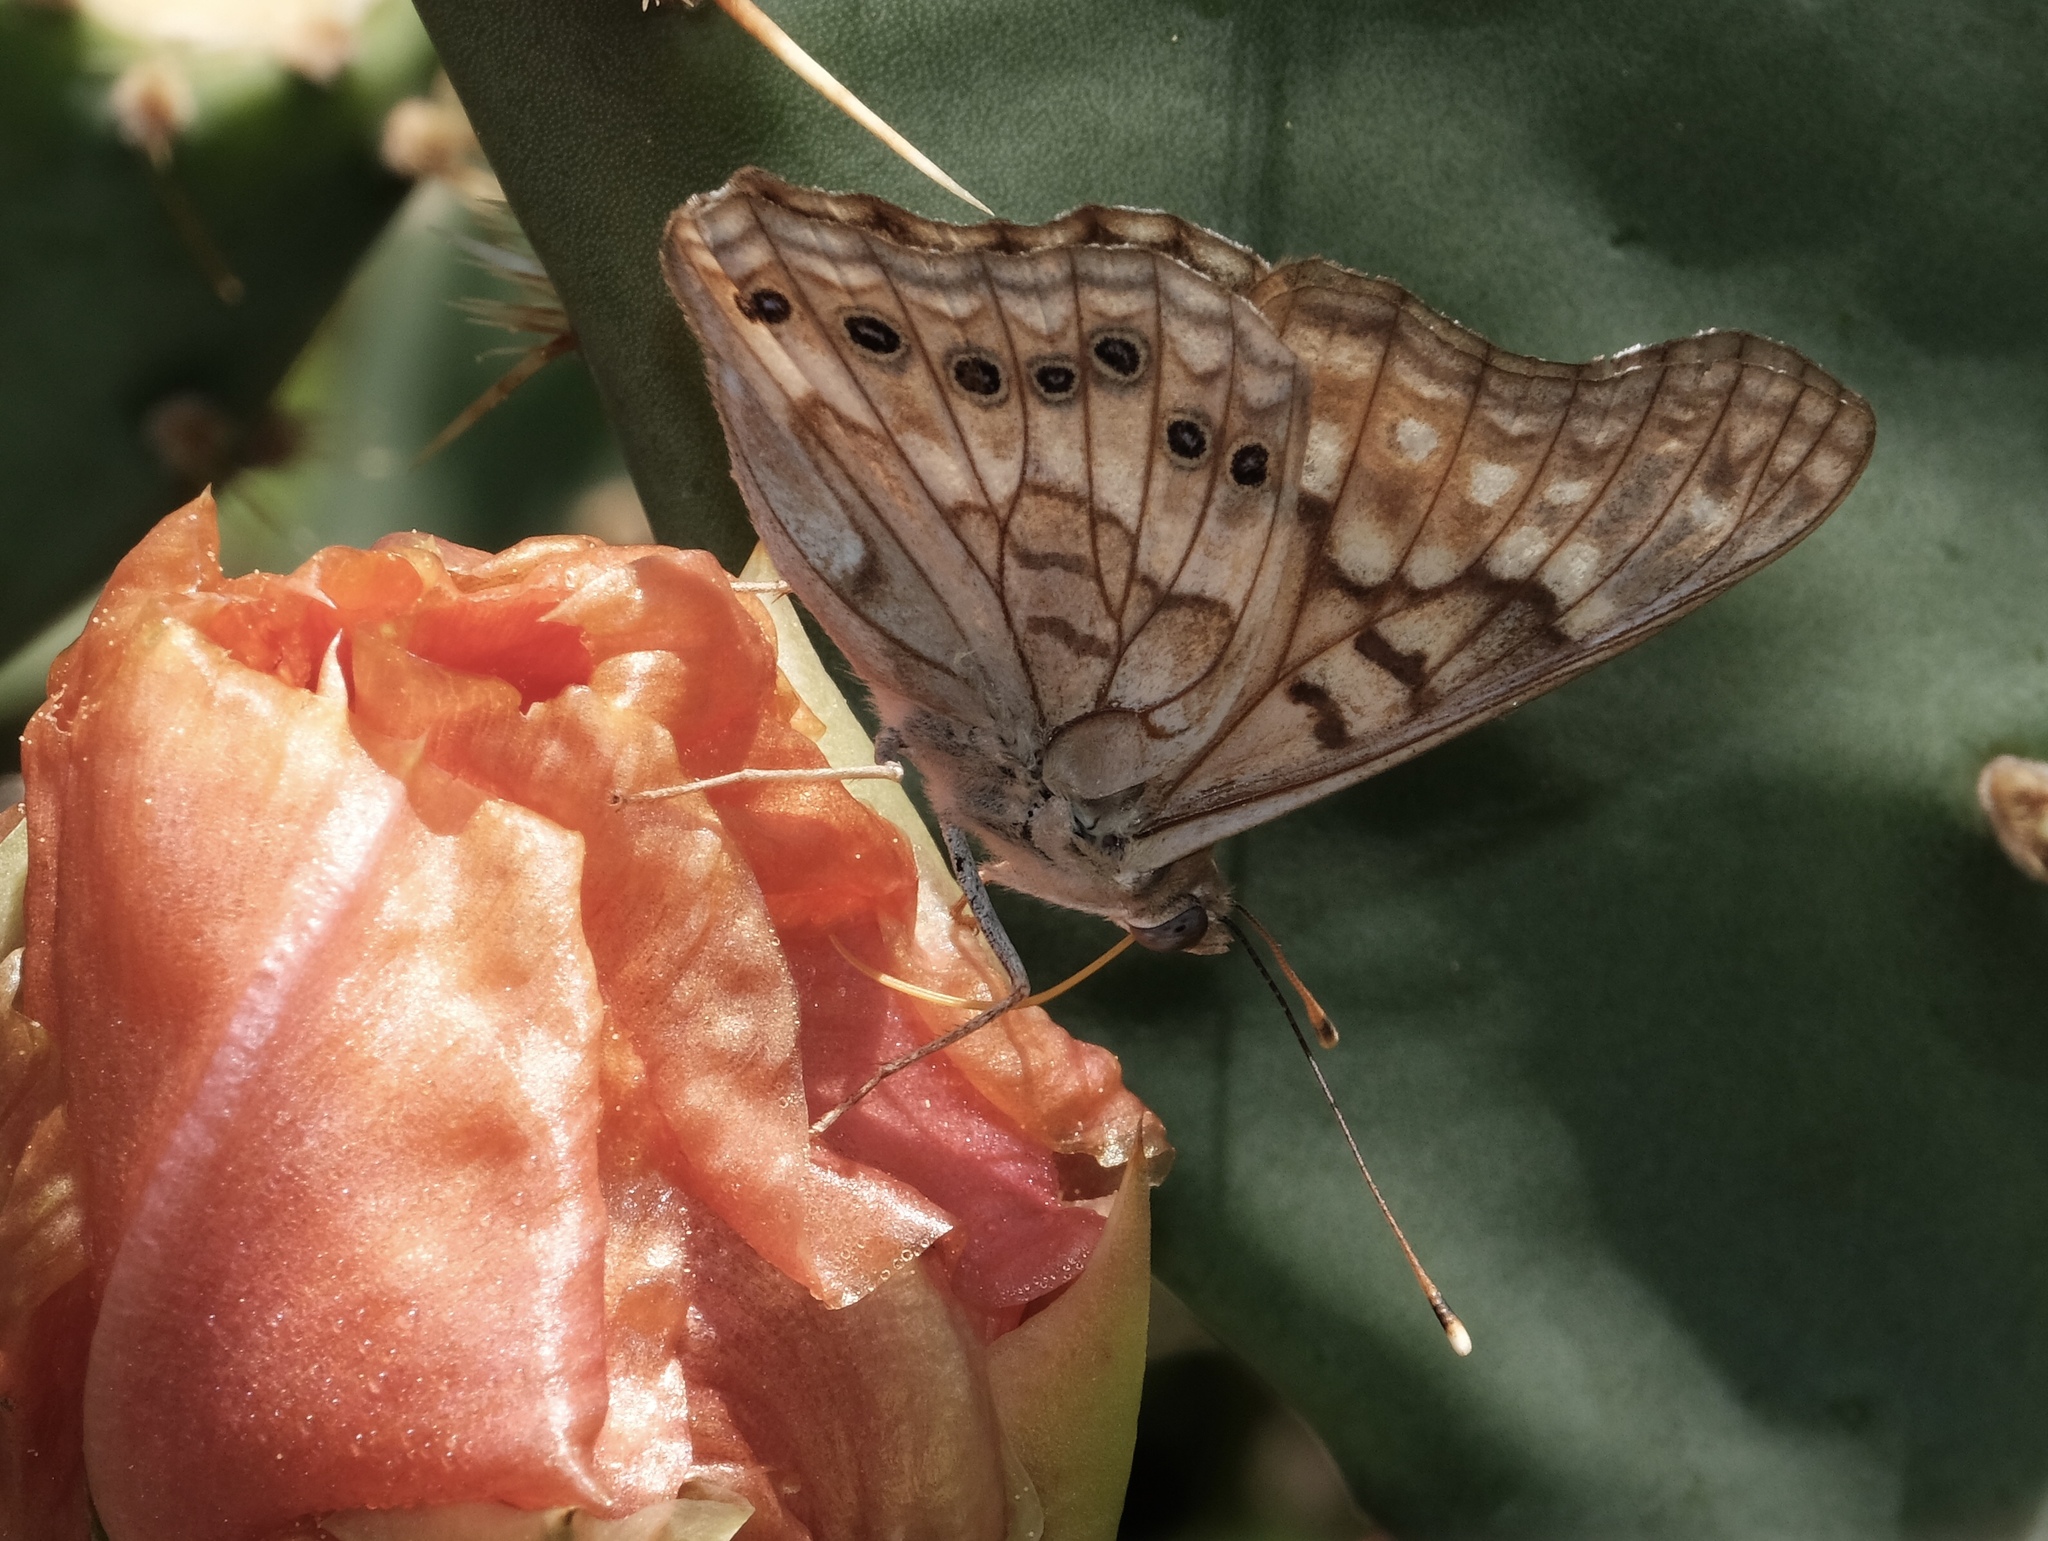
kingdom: Animalia
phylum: Arthropoda
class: Insecta
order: Lepidoptera
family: Nymphalidae
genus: Asterocampa
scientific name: Asterocampa clyton
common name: Tawny emperor
